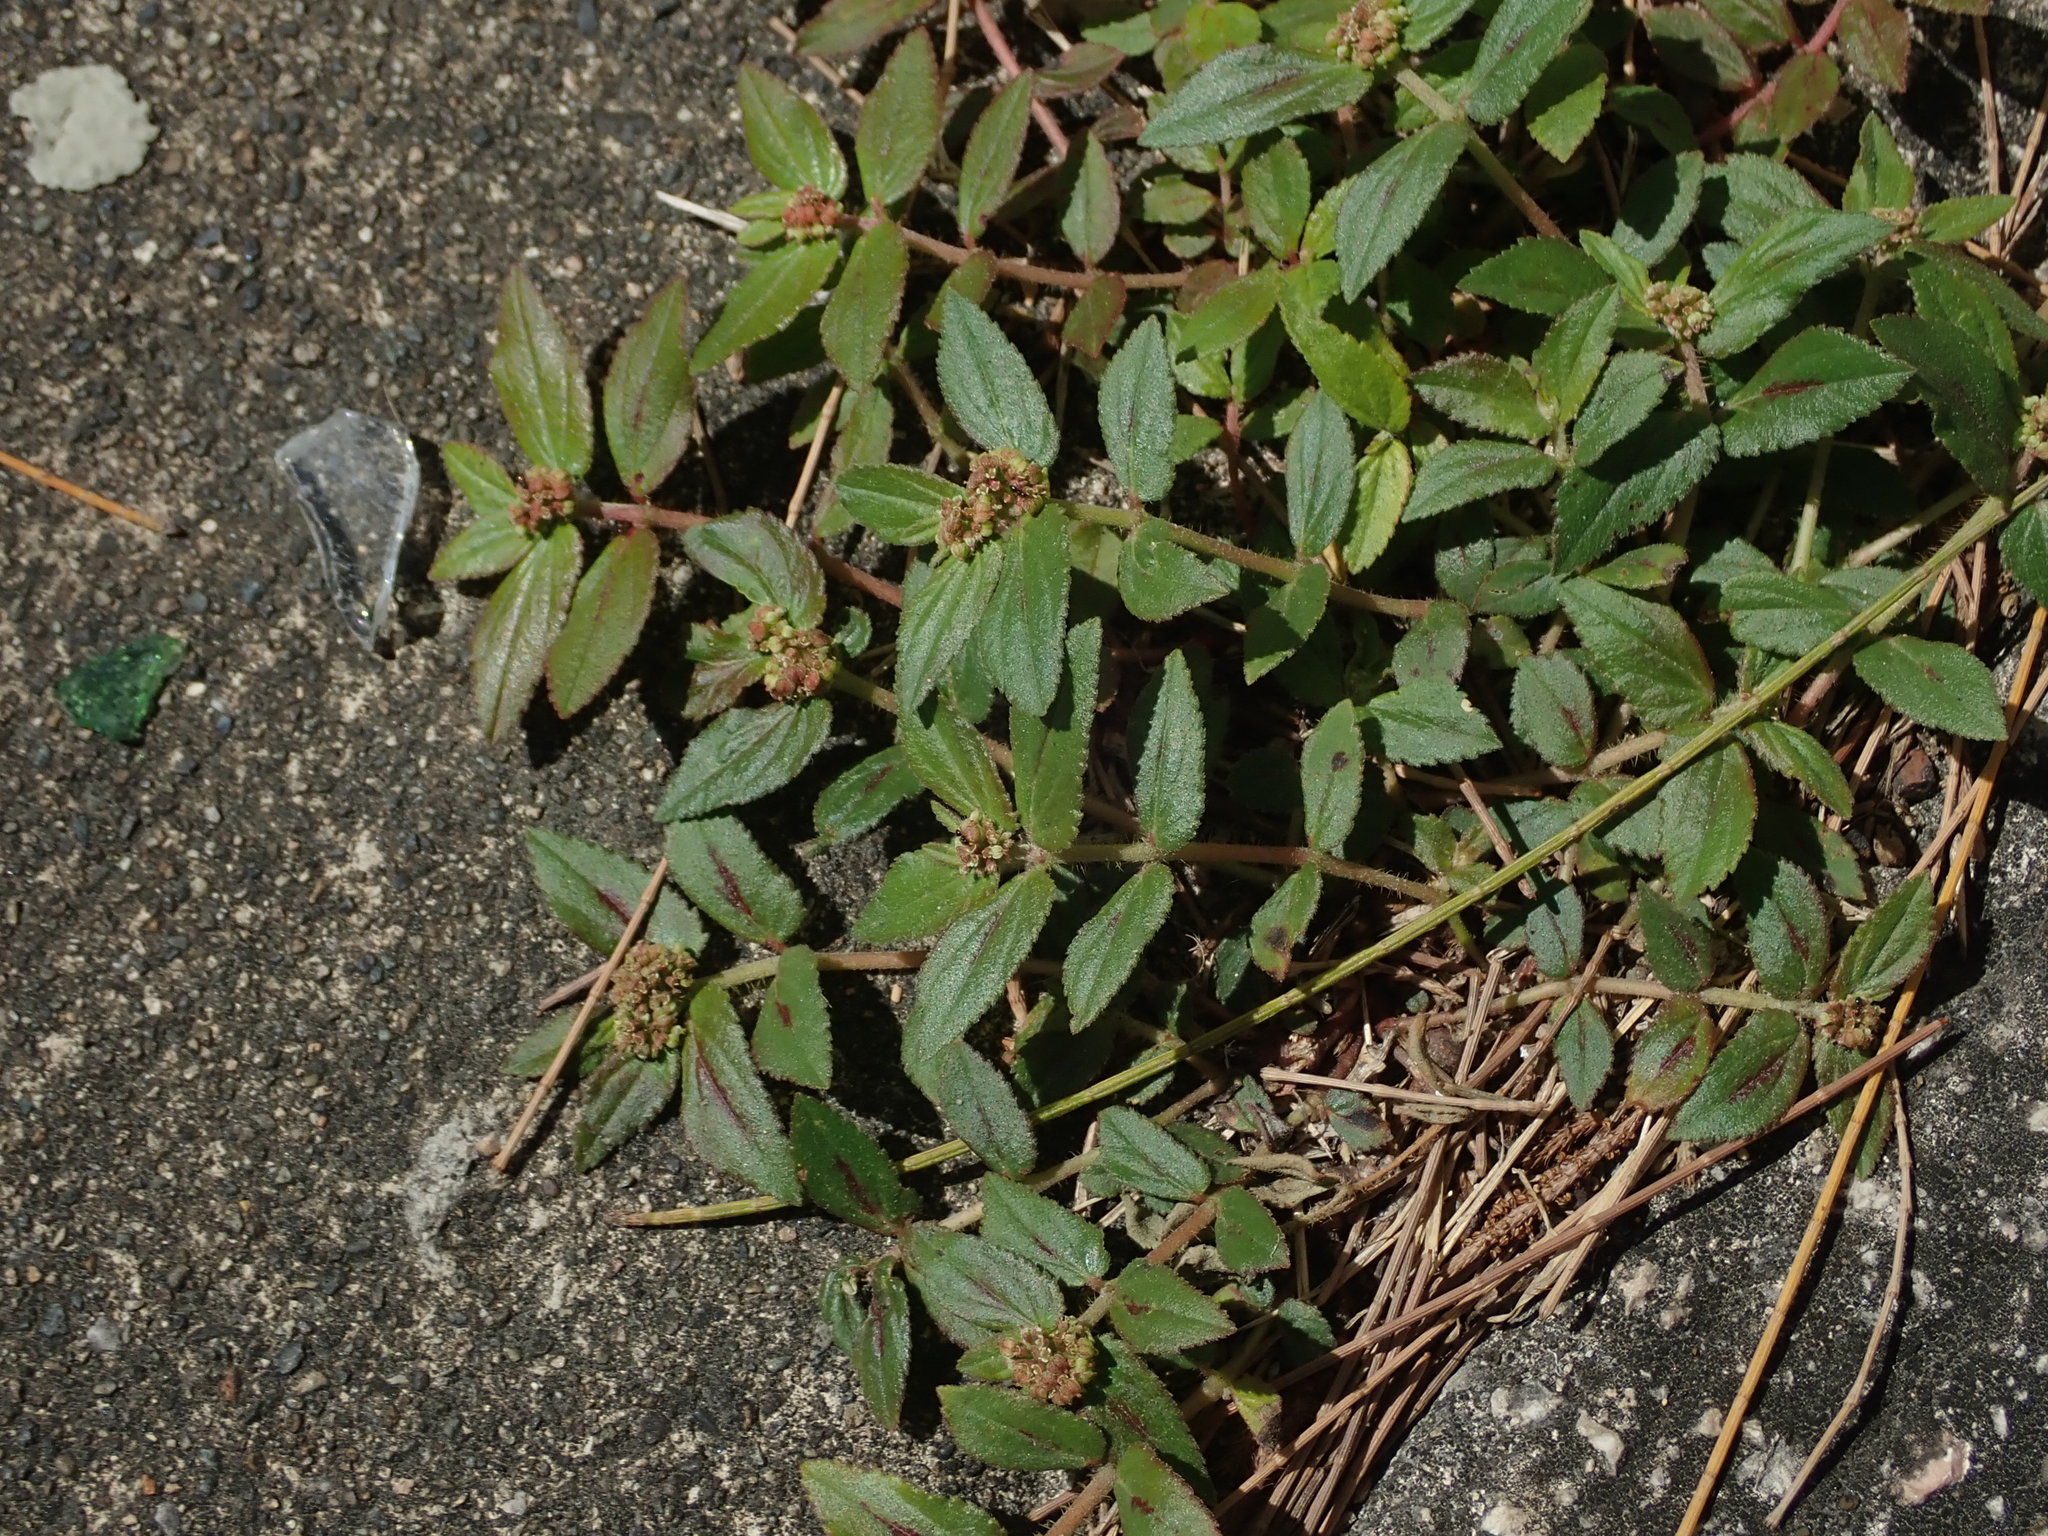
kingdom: Plantae
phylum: Tracheophyta
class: Magnoliopsida
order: Malpighiales
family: Euphorbiaceae
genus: Euphorbia
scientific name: Euphorbia hirta
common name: Pillpod sandmat
